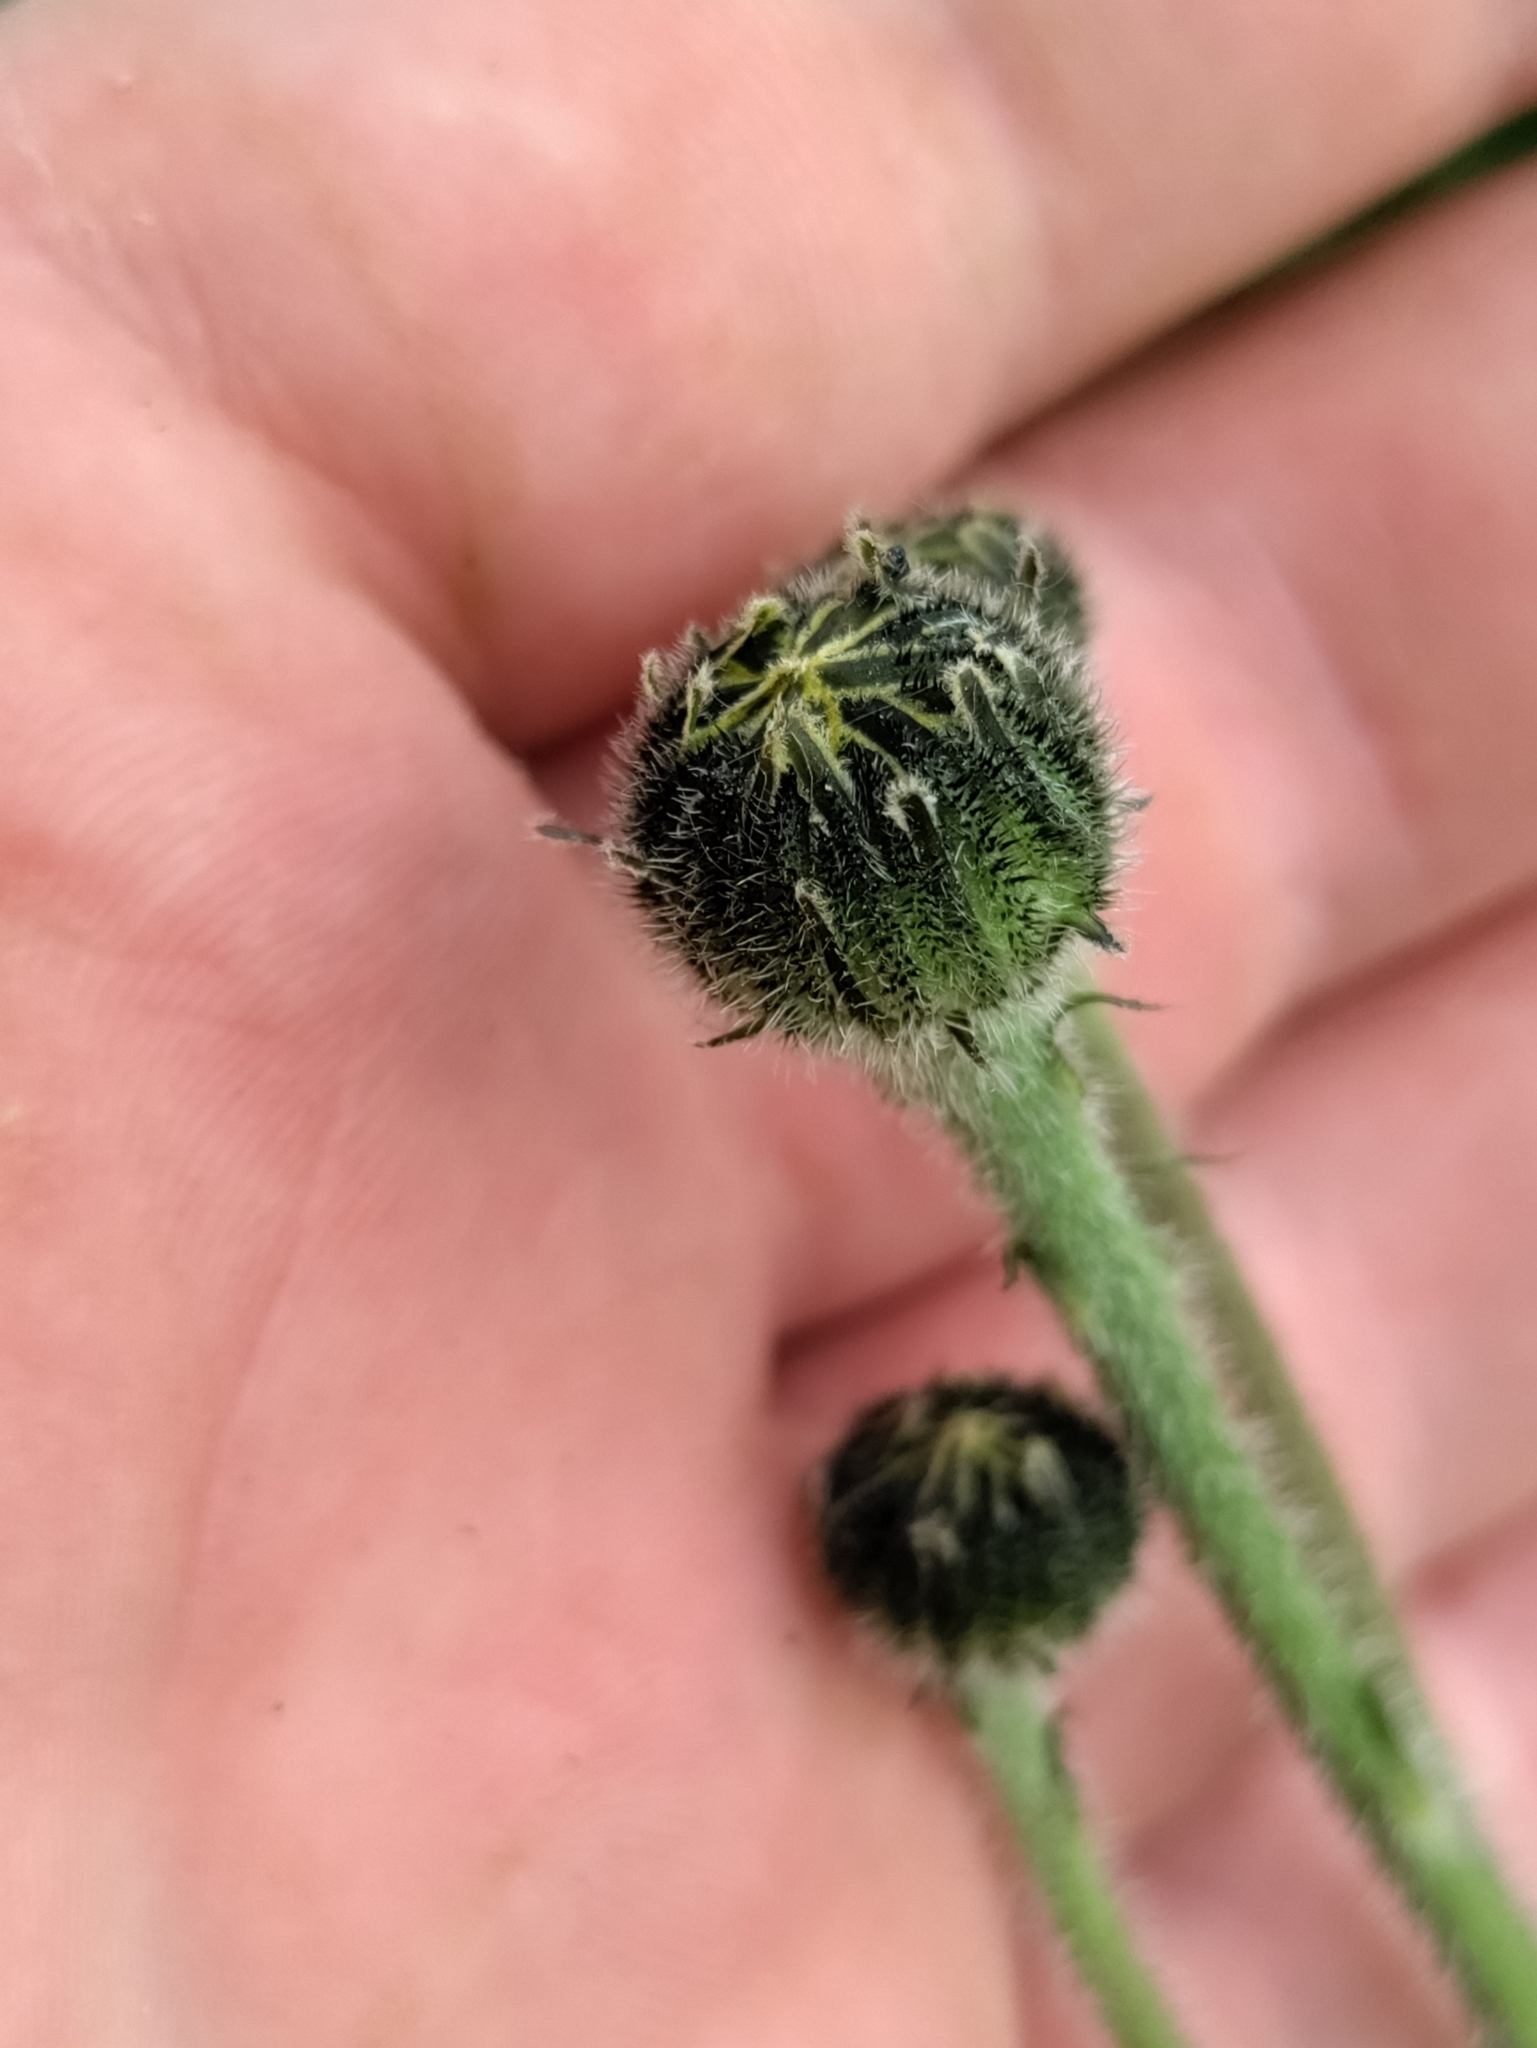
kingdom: Plantae
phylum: Tracheophyta
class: Magnoliopsida
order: Asterales
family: Asteraceae
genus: Trommsdorffia
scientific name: Trommsdorffia maculata
